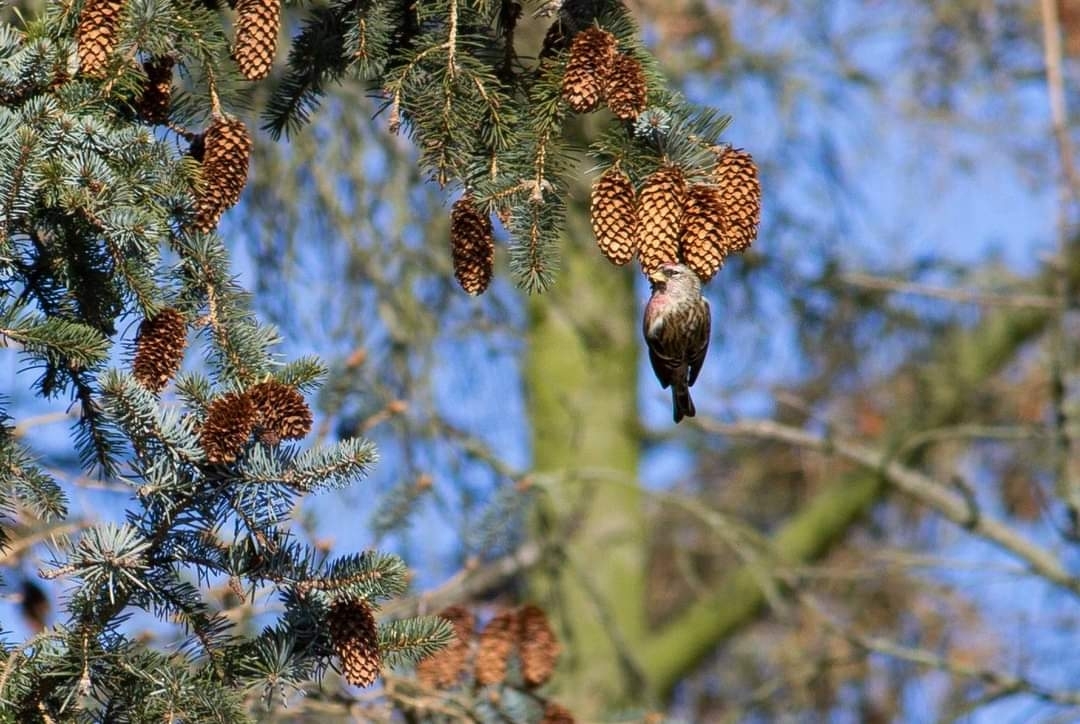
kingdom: Animalia
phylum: Chordata
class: Aves
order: Passeriformes
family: Fringillidae
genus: Acanthis
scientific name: Acanthis flammea
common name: Common redpoll
